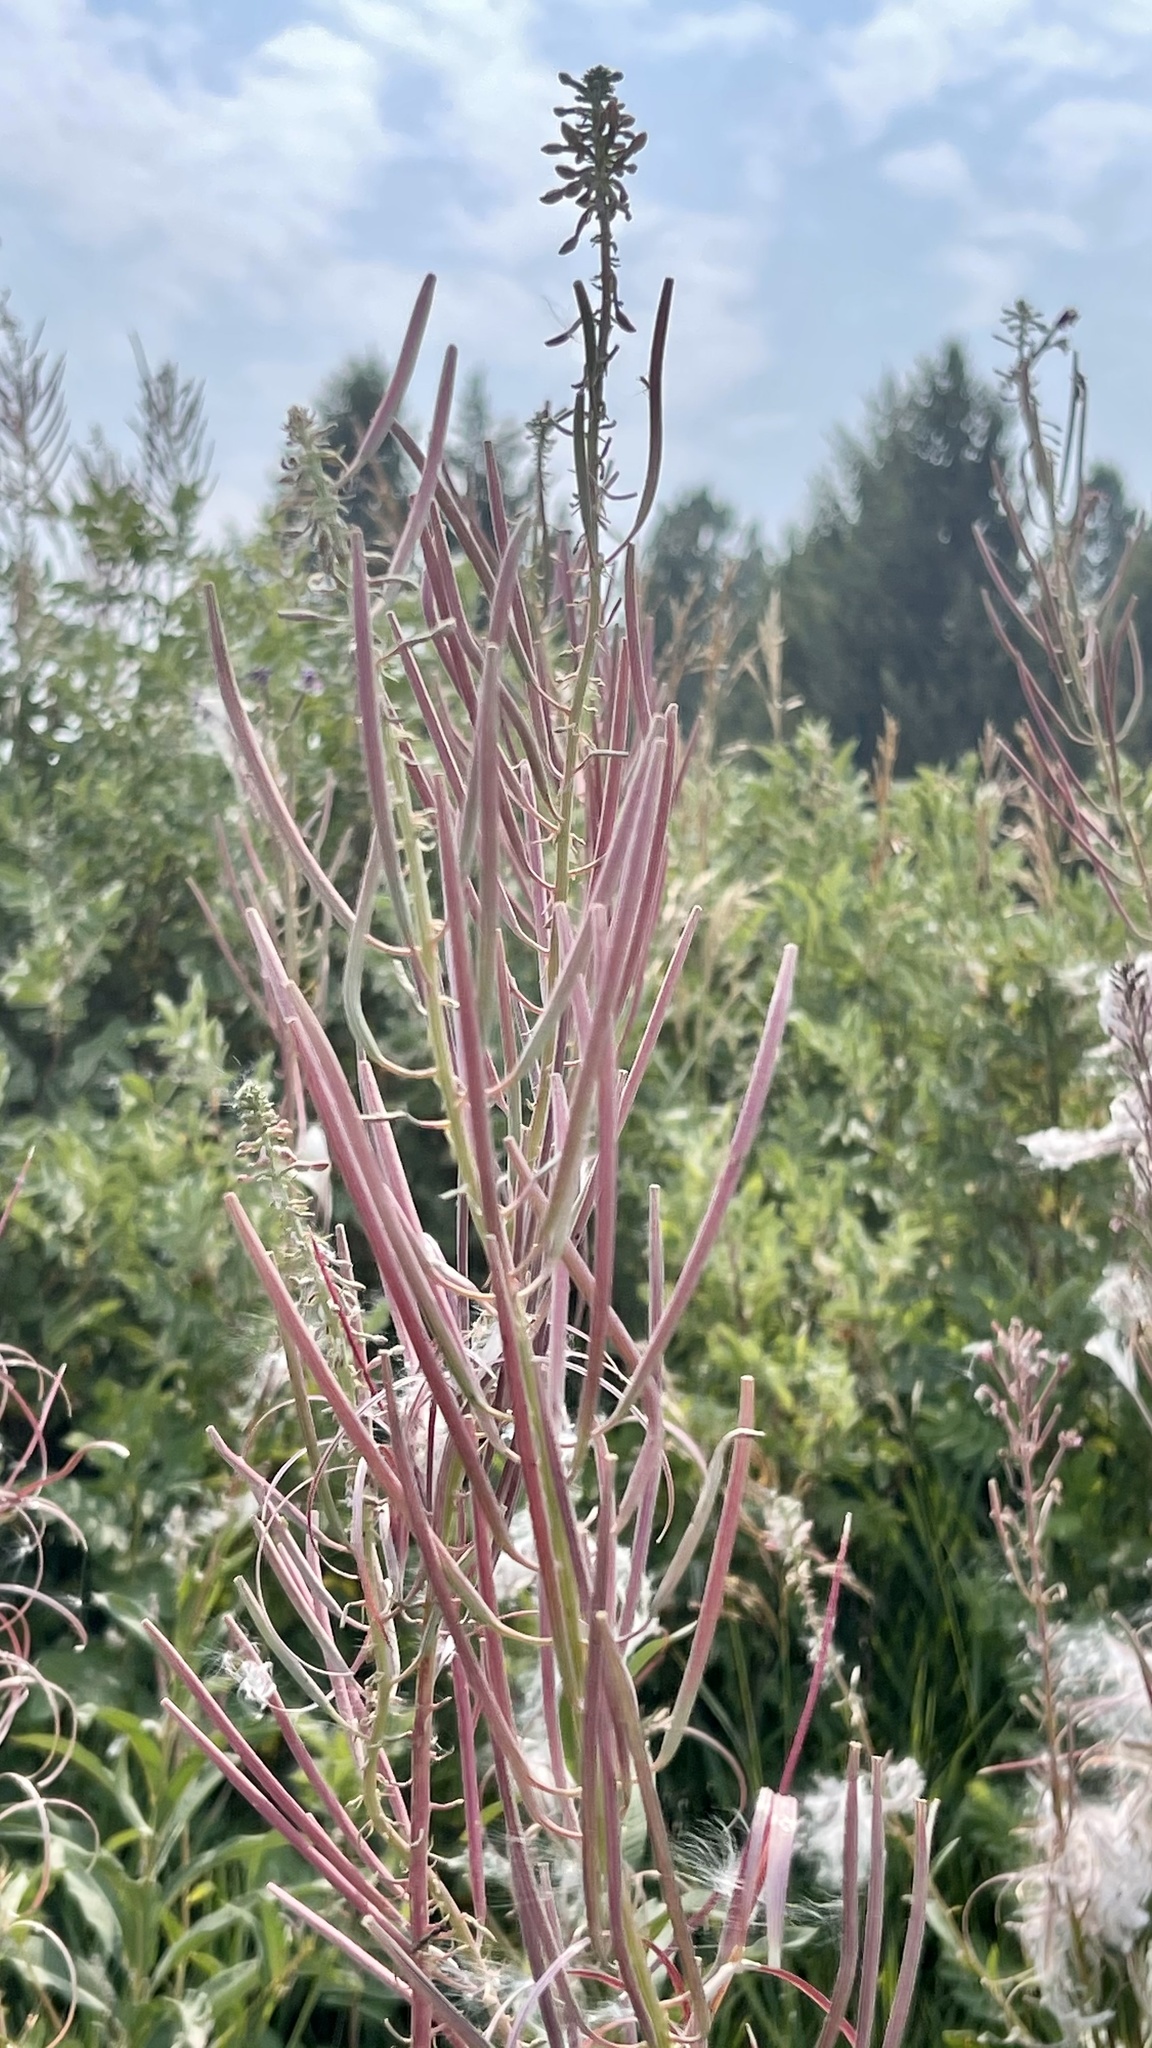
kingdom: Plantae
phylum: Tracheophyta
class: Magnoliopsida
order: Myrtales
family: Onagraceae
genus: Chamaenerion
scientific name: Chamaenerion angustifolium
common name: Fireweed
